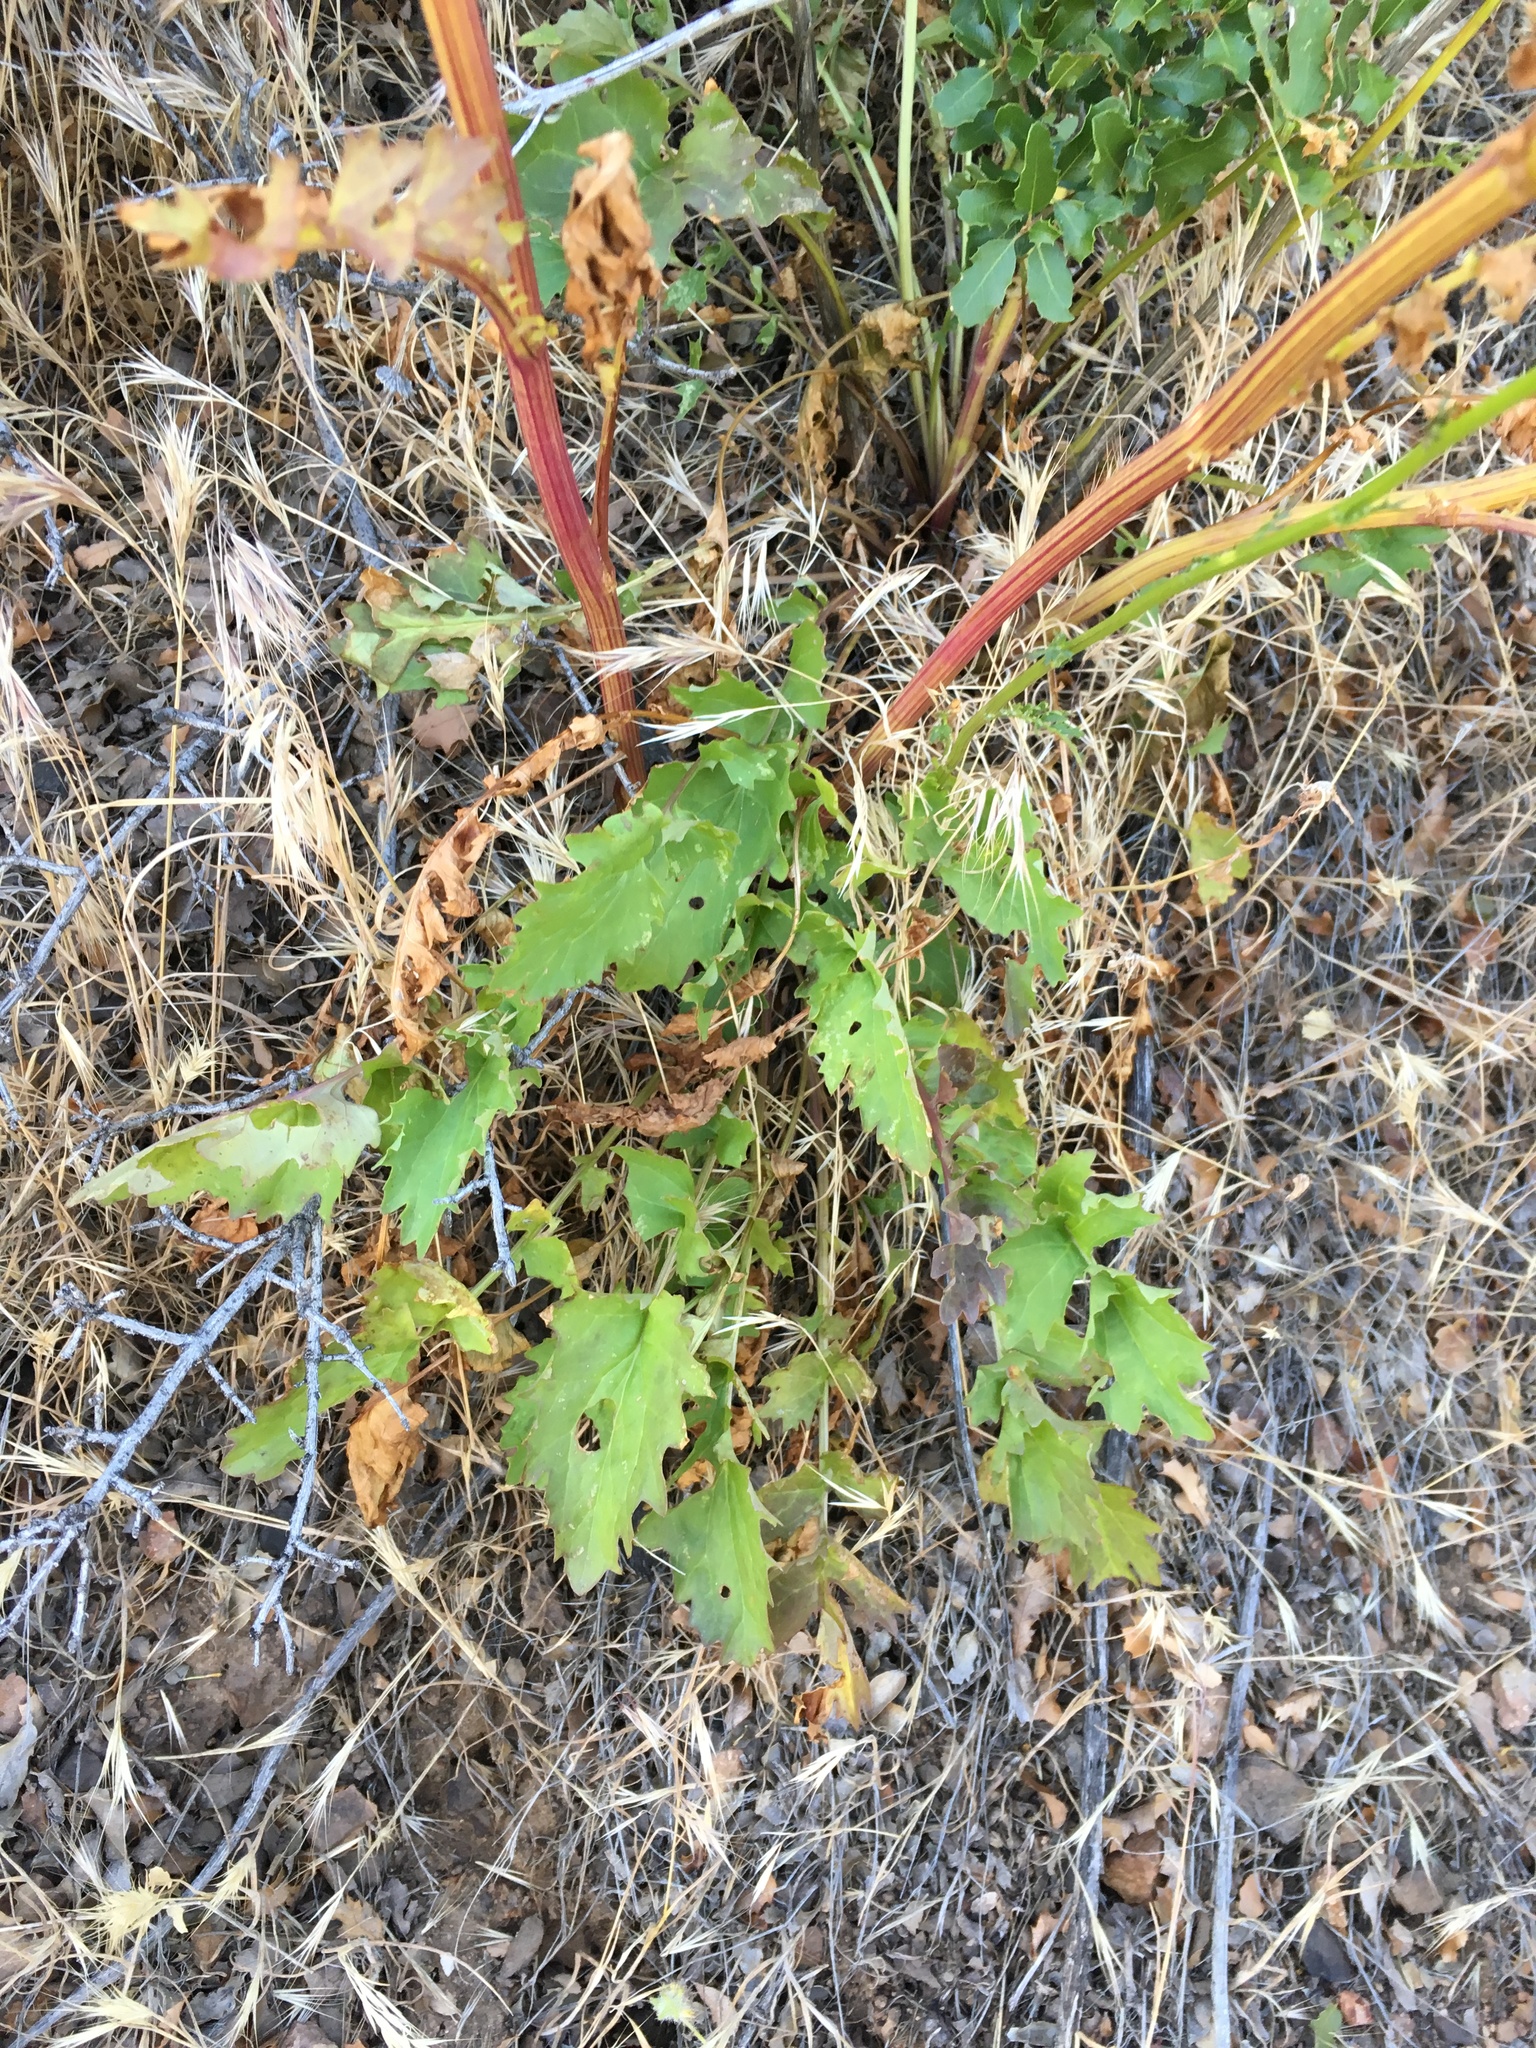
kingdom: Plantae
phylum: Tracheophyta
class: Magnoliopsida
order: Asterales
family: Asteraceae
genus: Packera
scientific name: Packera breweri
